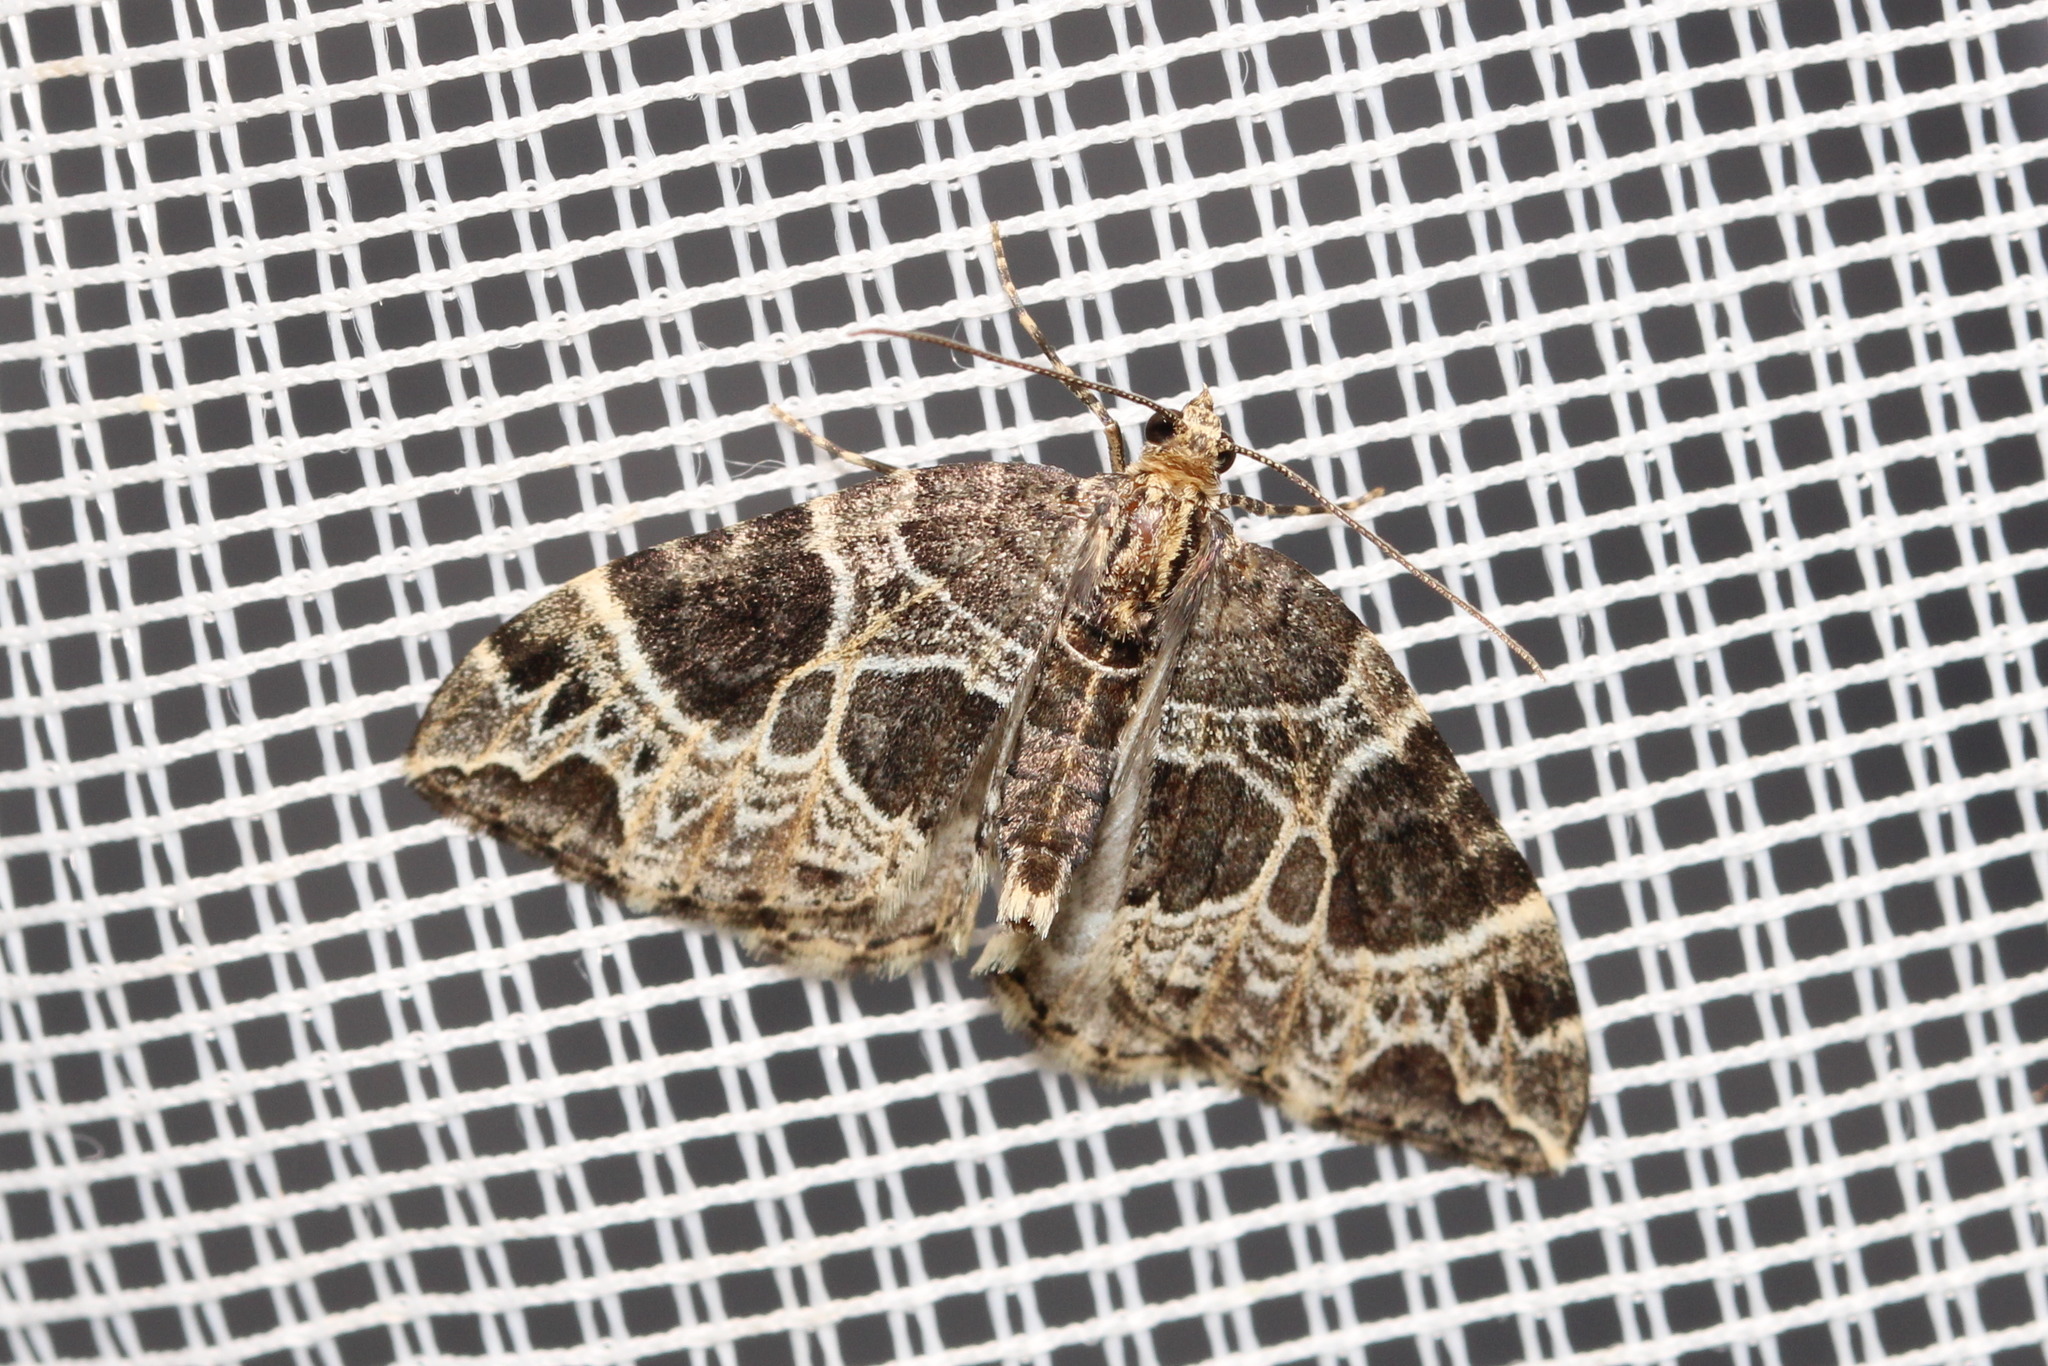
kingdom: Animalia
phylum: Arthropoda
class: Insecta
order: Lepidoptera
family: Geometridae
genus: Ecliptopera
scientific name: Ecliptopera silaceata
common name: Small phoenix
